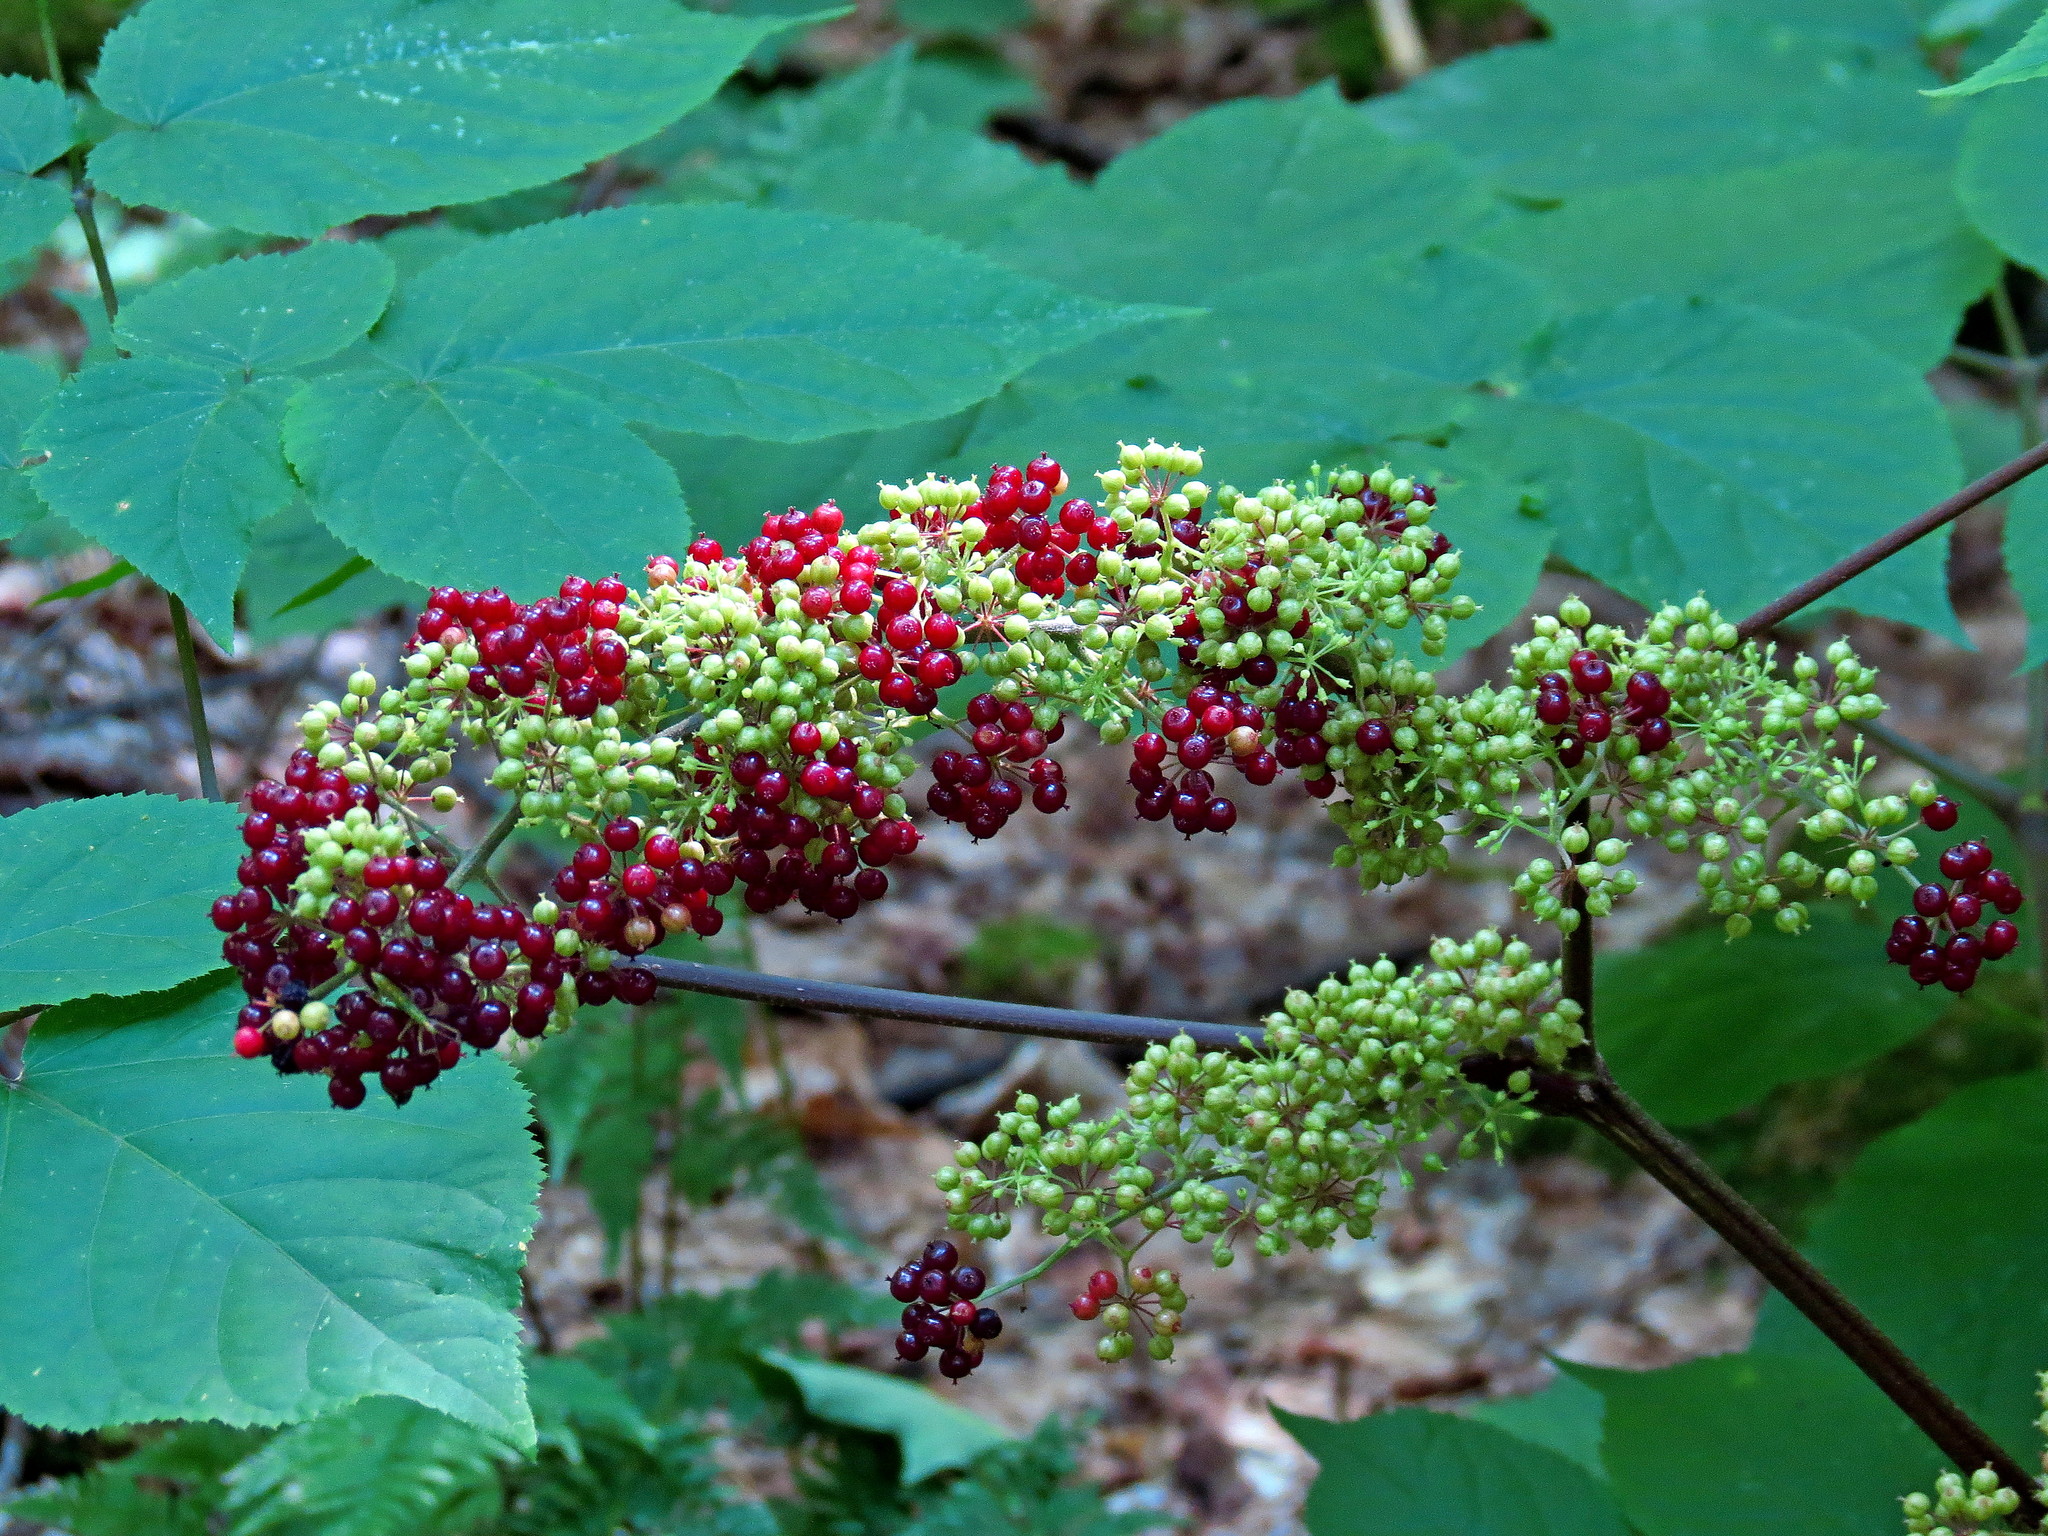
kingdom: Plantae
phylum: Tracheophyta
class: Magnoliopsida
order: Apiales
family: Araliaceae
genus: Aralia
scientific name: Aralia racemosa
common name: American-spikenard
